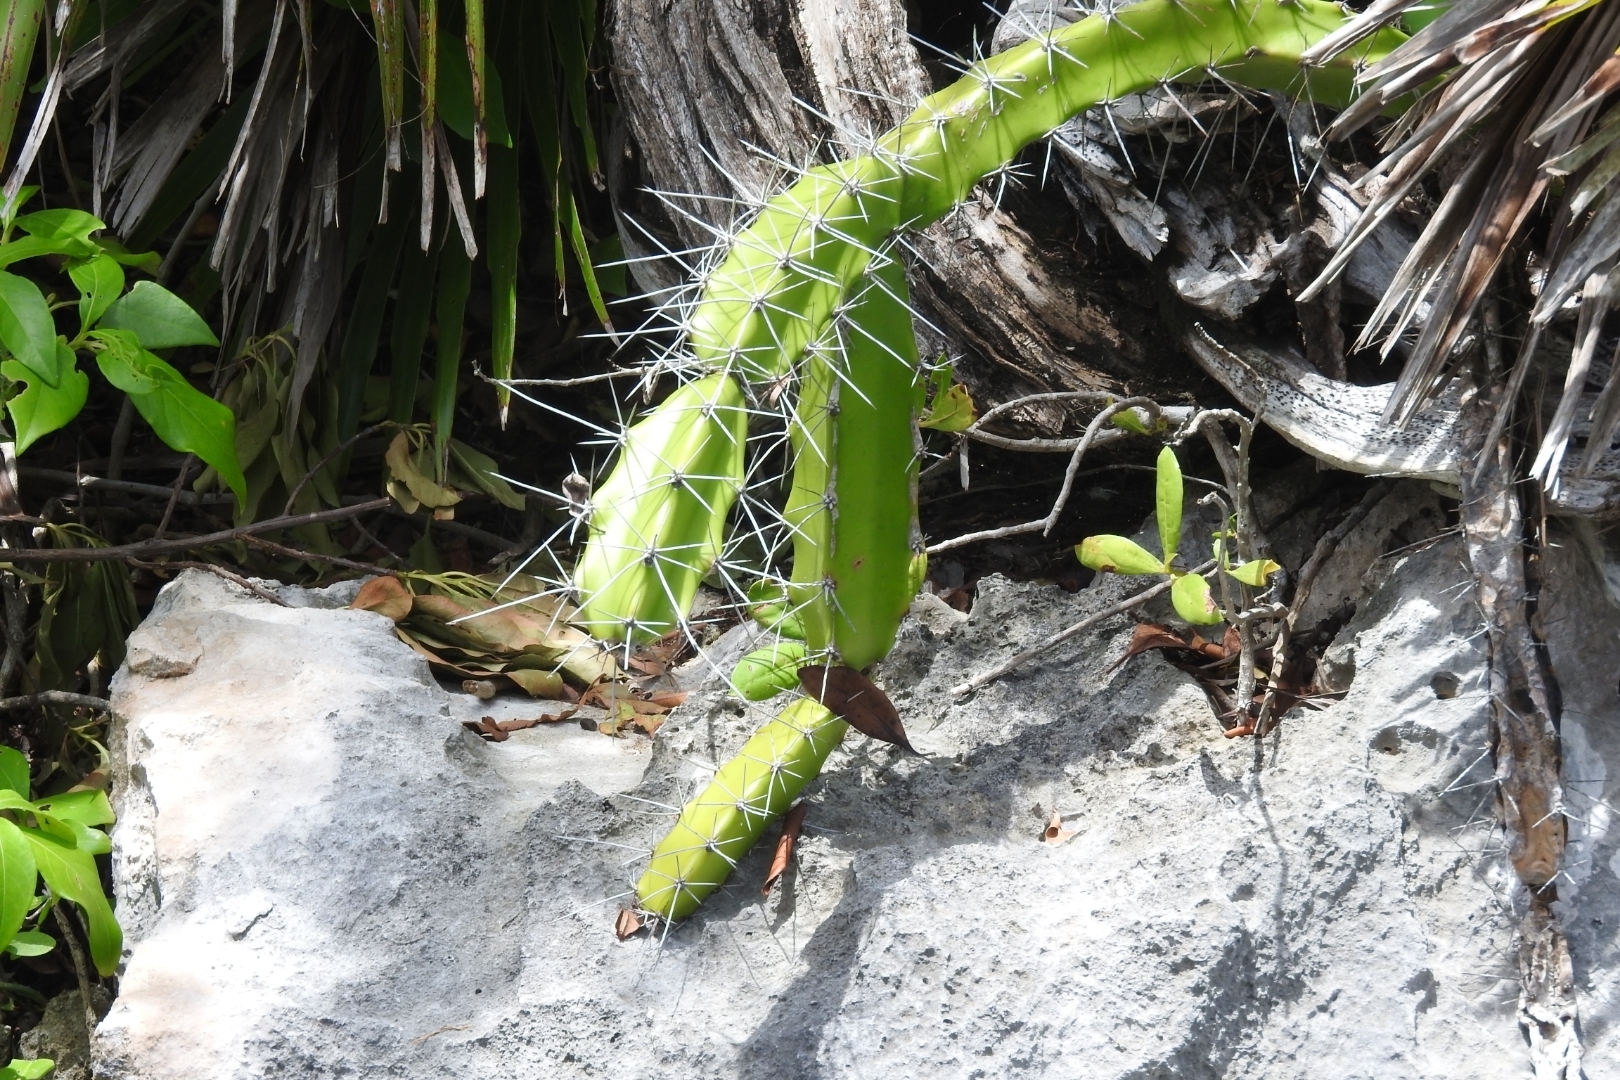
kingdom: Plantae
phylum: Tracheophyta
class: Magnoliopsida
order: Caryophyllales
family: Cactaceae
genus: Acanthocereus
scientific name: Acanthocereus tetragonus
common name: Triangle cactus
